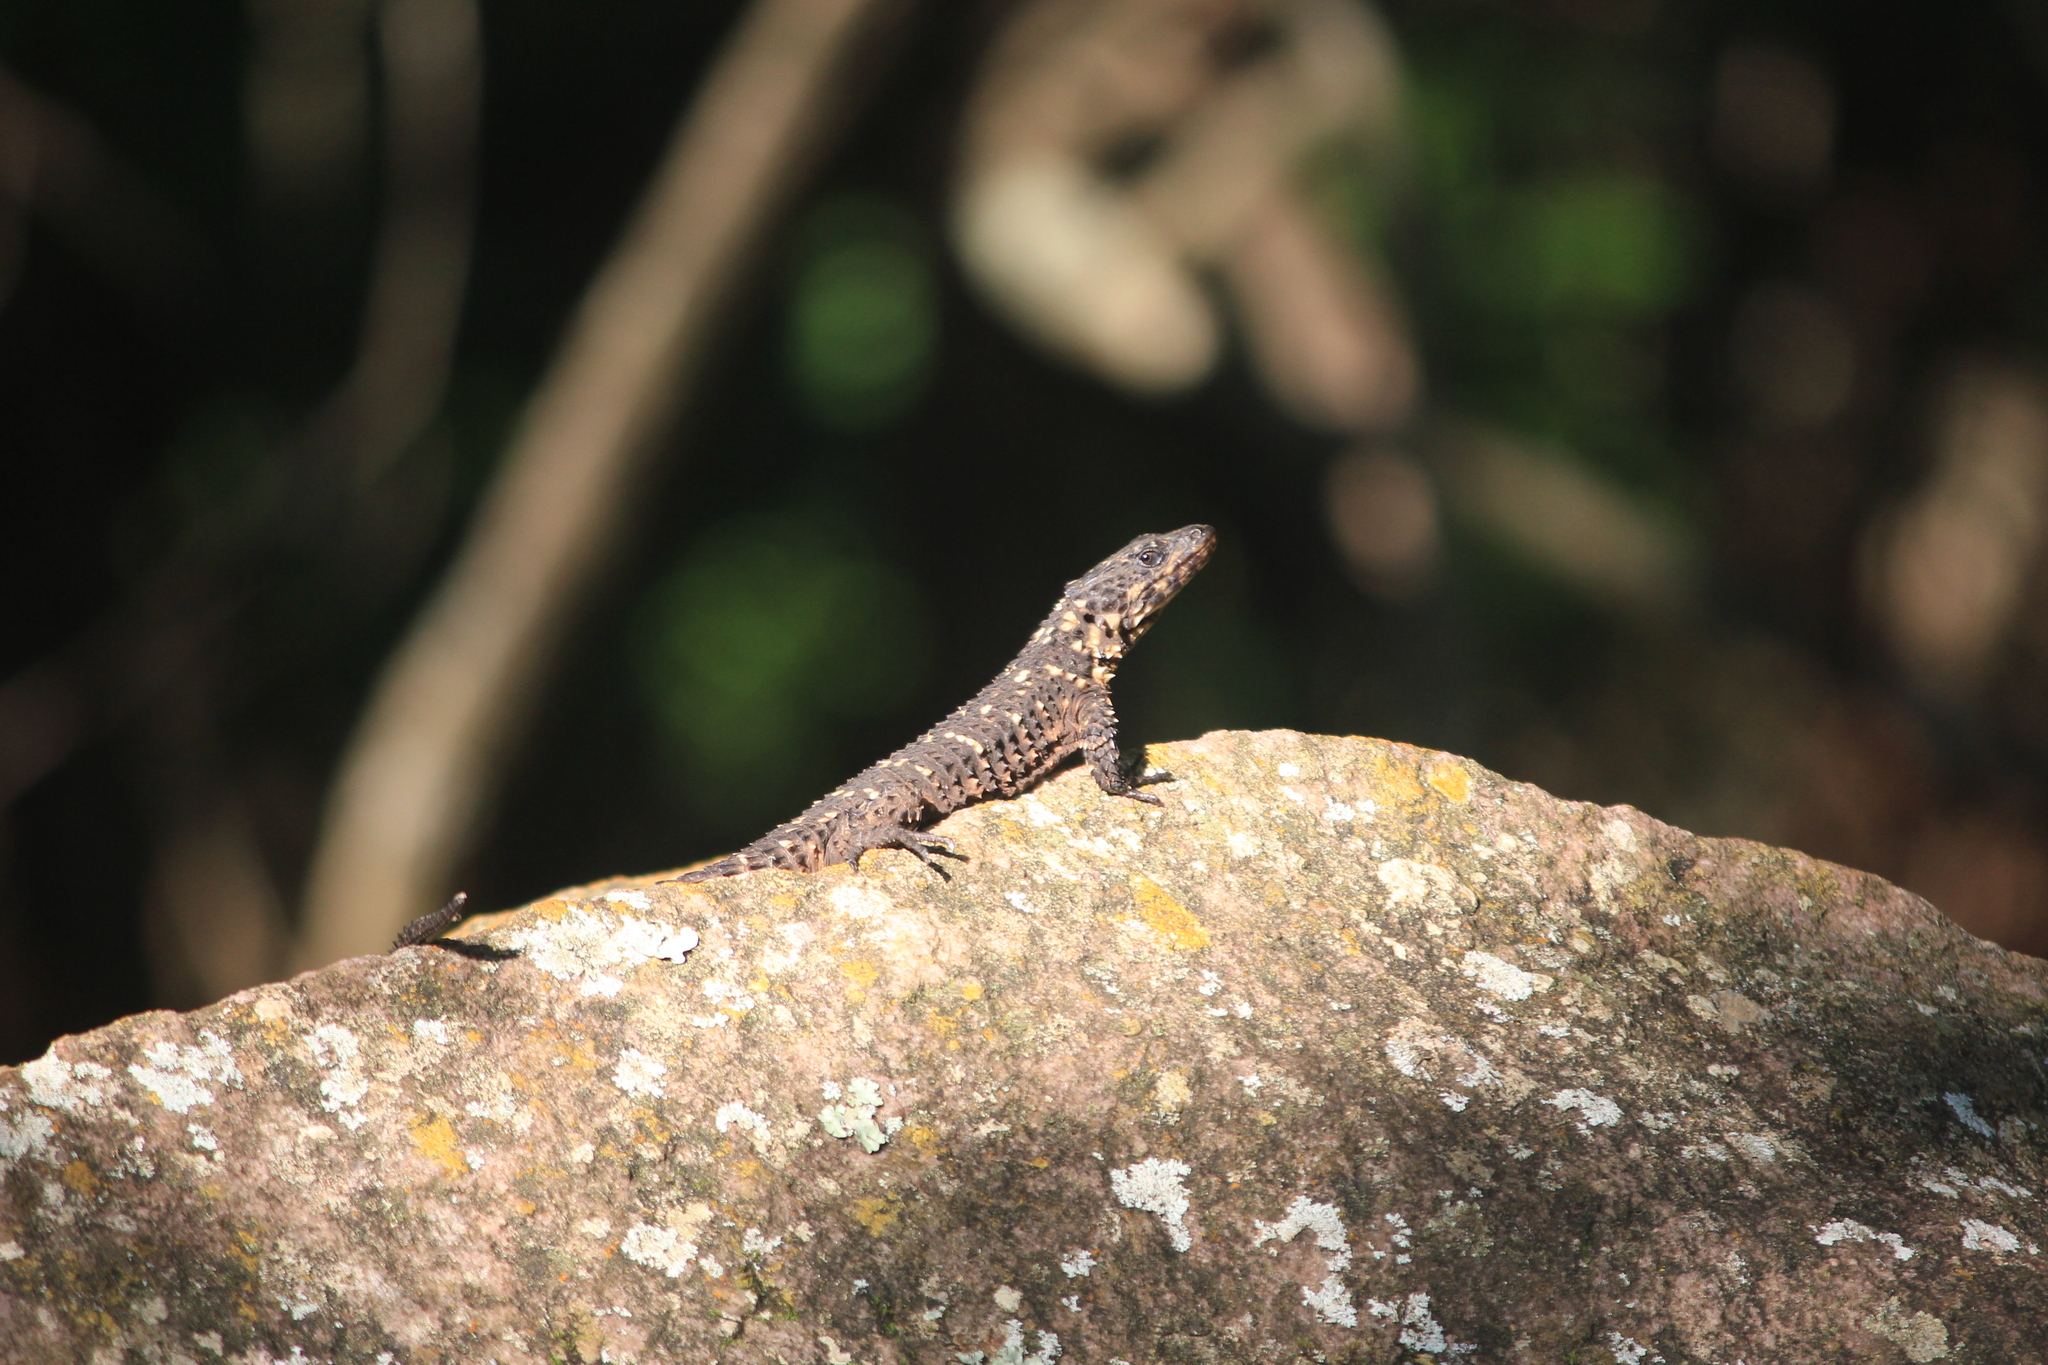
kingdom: Animalia
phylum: Chordata
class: Squamata
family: Cordylidae
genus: Smaug
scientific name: Smaug depressus
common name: Flat dragon lizard
